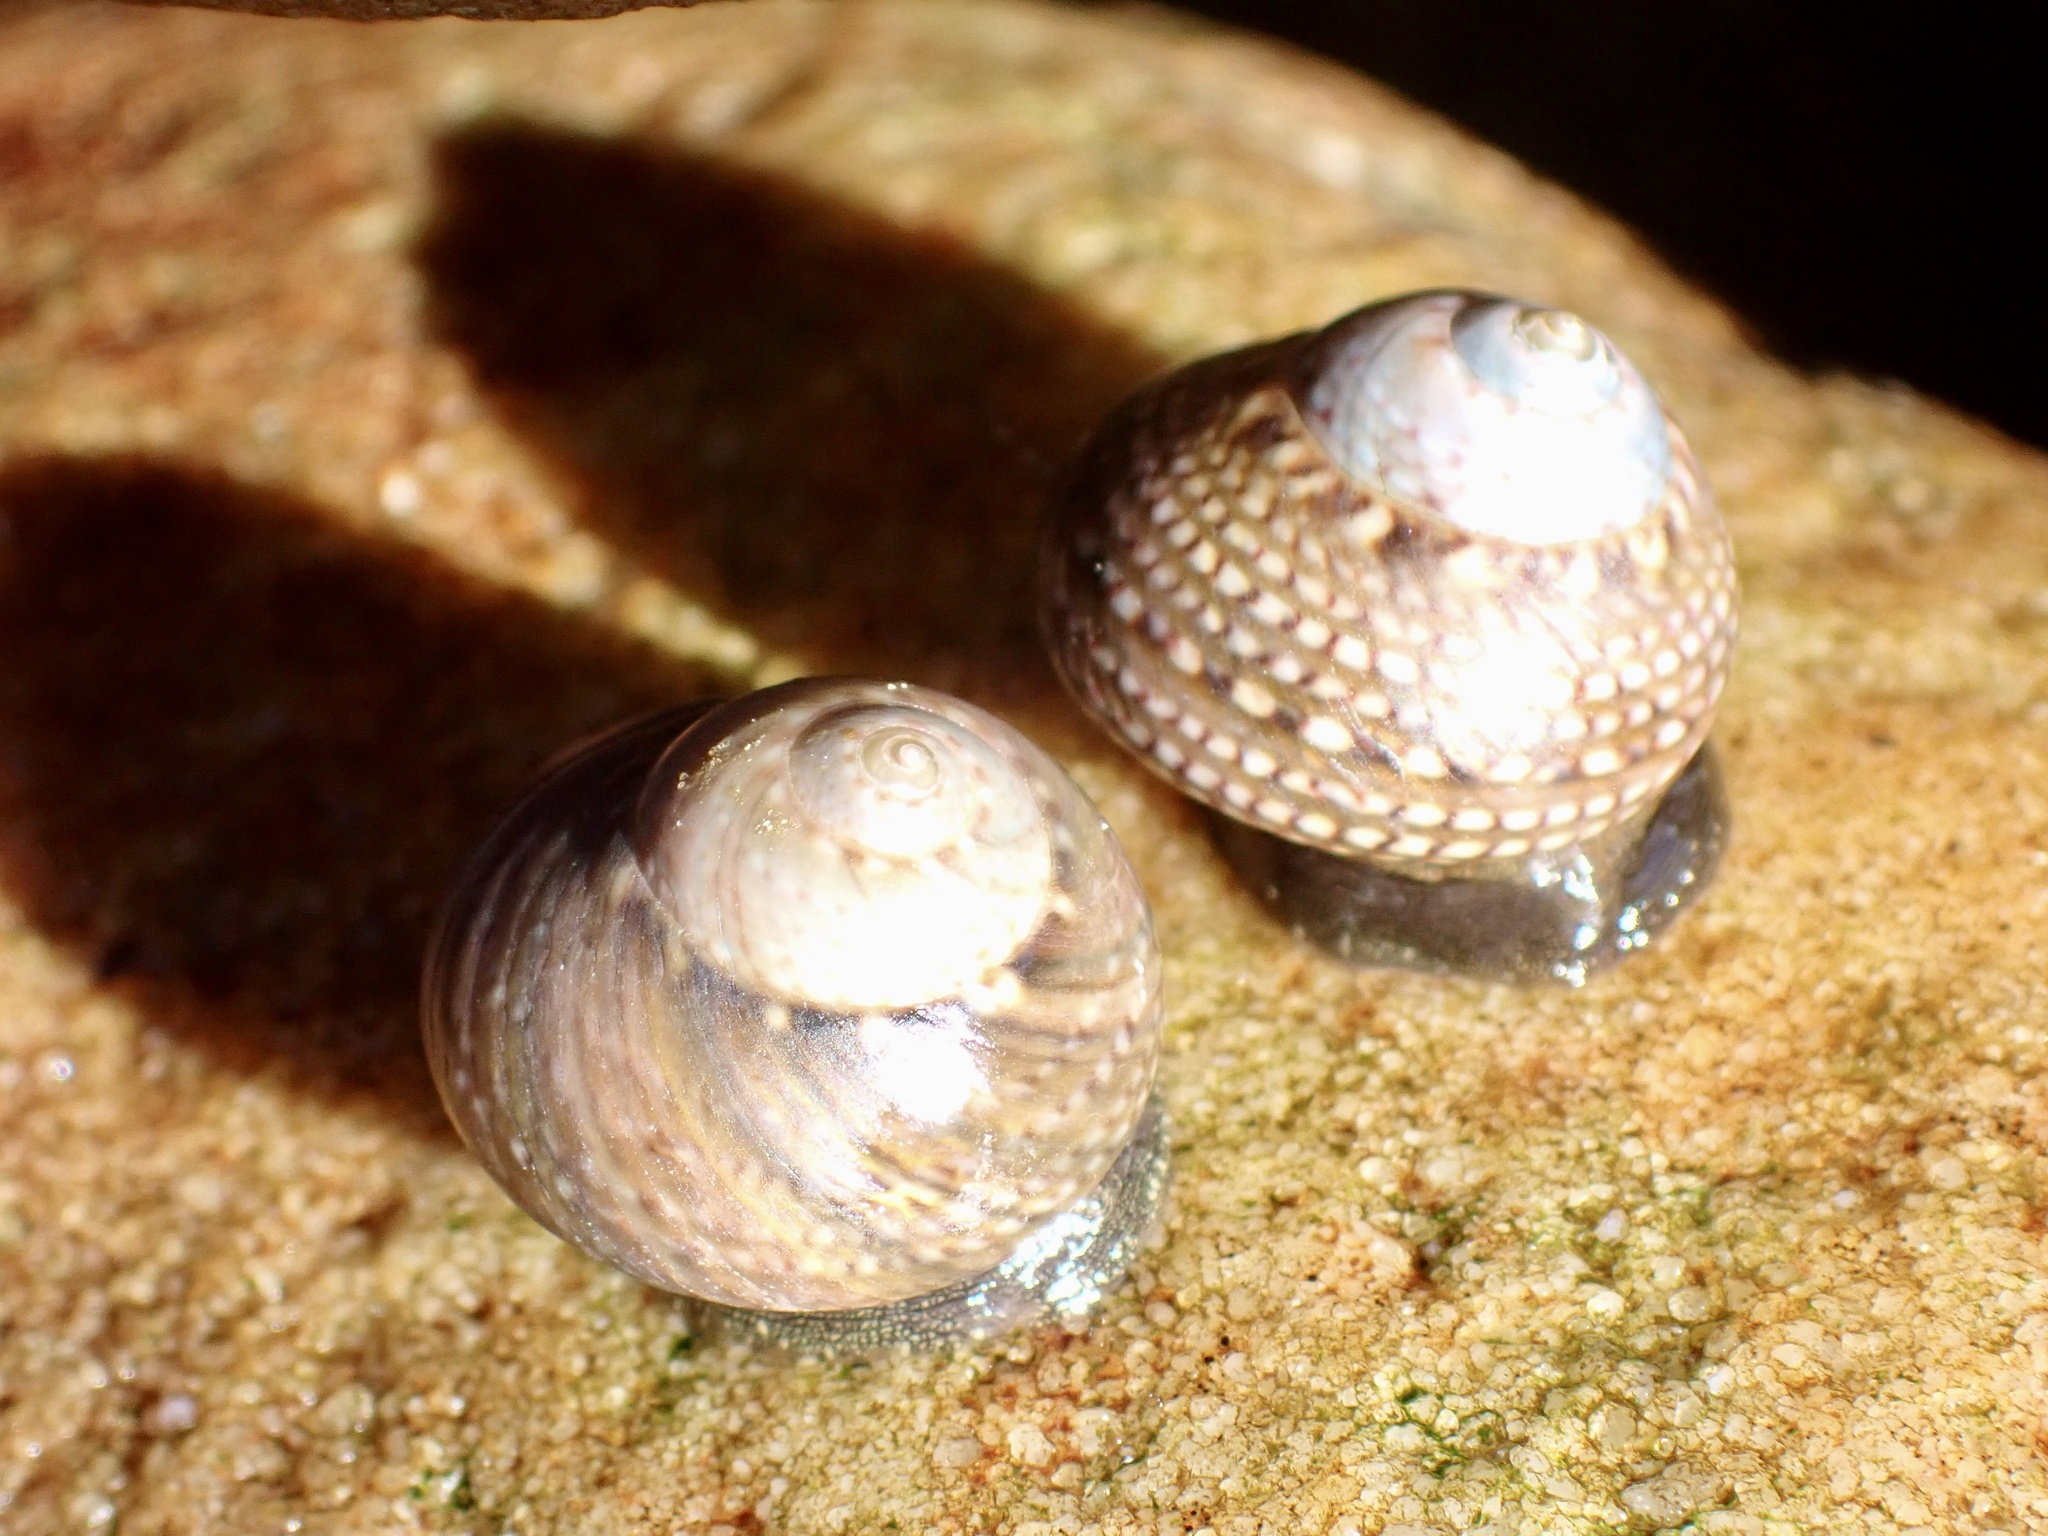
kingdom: Animalia
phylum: Mollusca
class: Gastropoda
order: Trochida
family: Trochidae
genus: Oxystele
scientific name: Oxystele impervia
